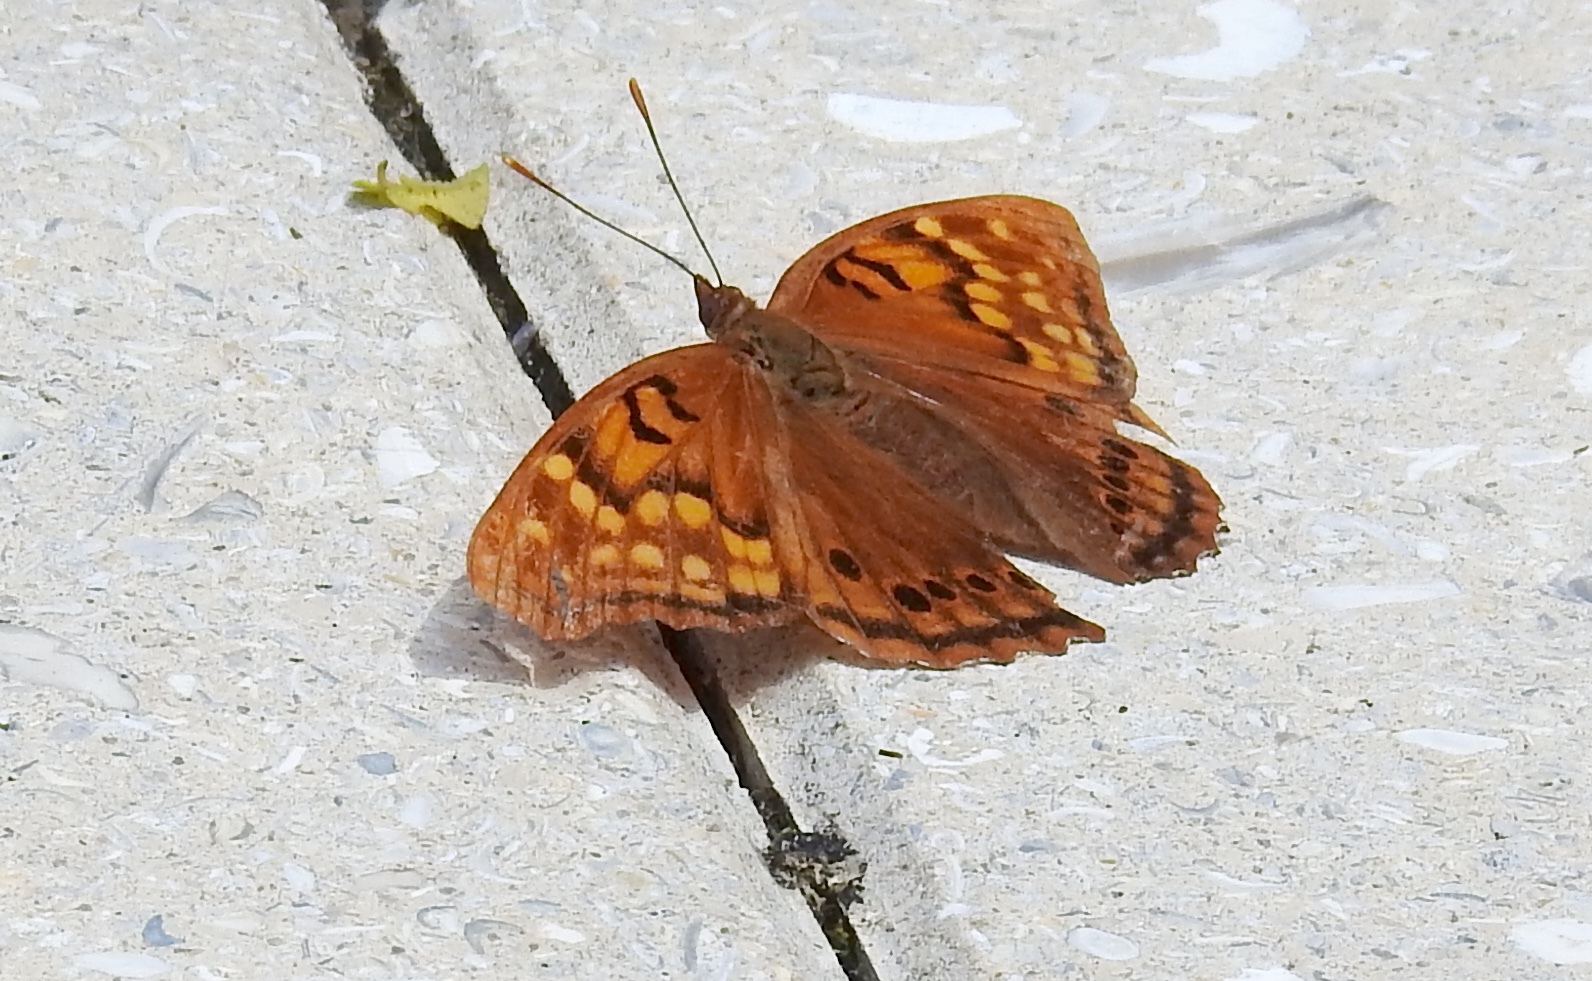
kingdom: Animalia
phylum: Arthropoda
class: Insecta
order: Lepidoptera
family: Nymphalidae
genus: Asterocampa
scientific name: Asterocampa clyton
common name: Tawny emperor
